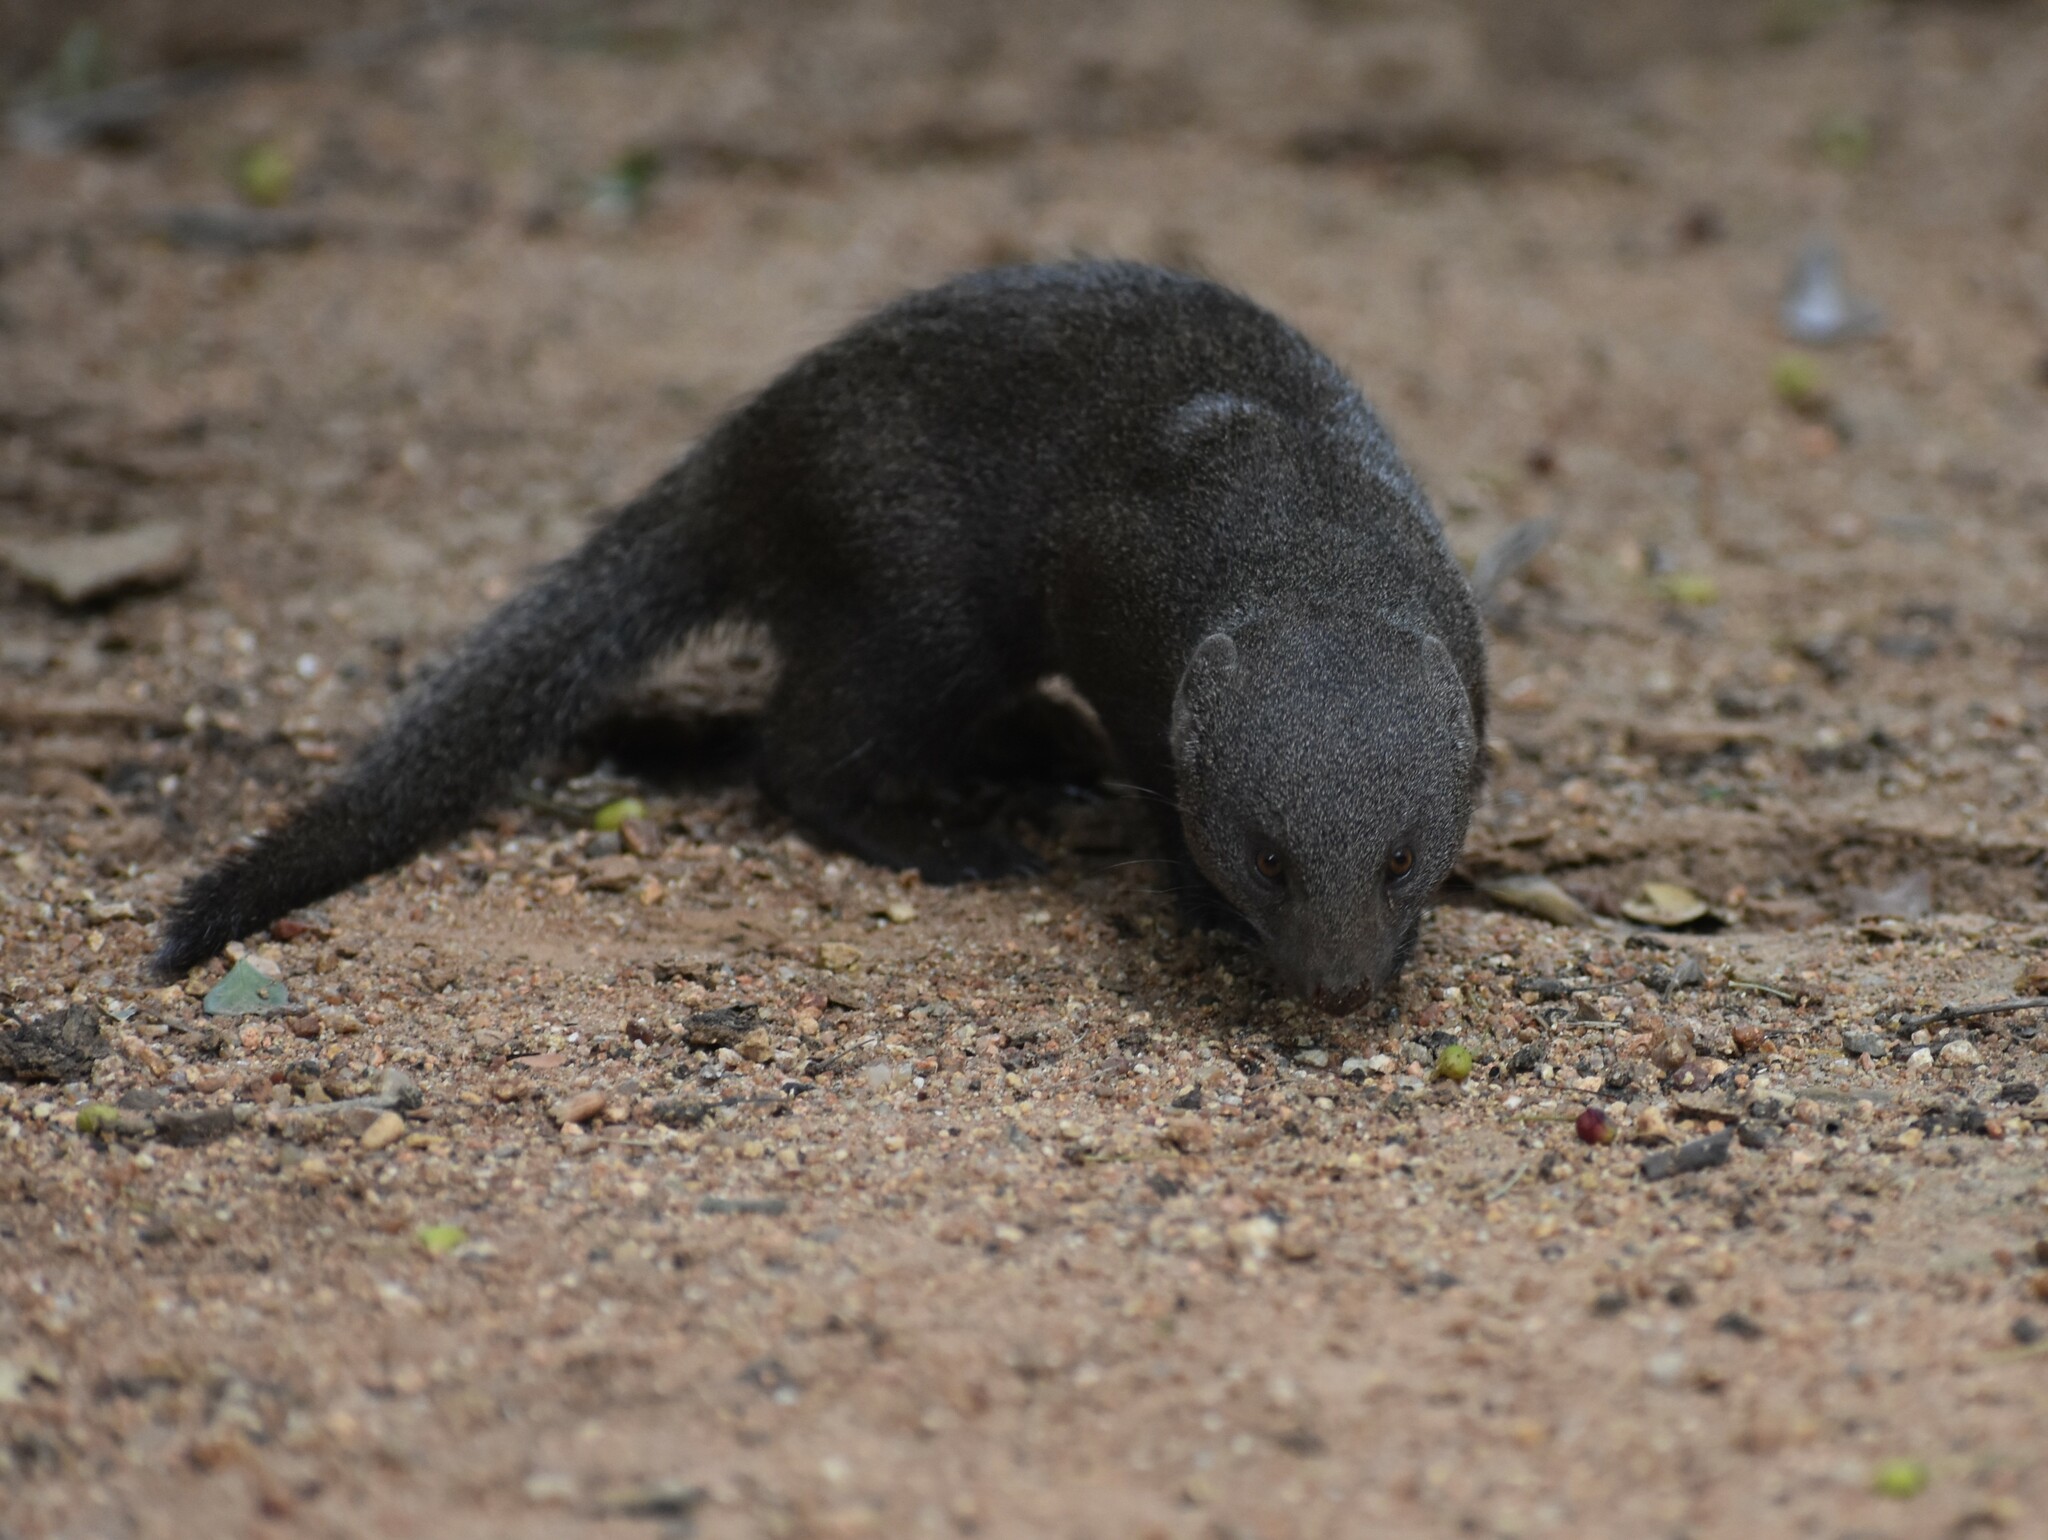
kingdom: Animalia
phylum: Chordata
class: Mammalia
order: Carnivora
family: Herpestidae
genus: Helogale
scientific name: Helogale parvula
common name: Common dwarf mongoose
